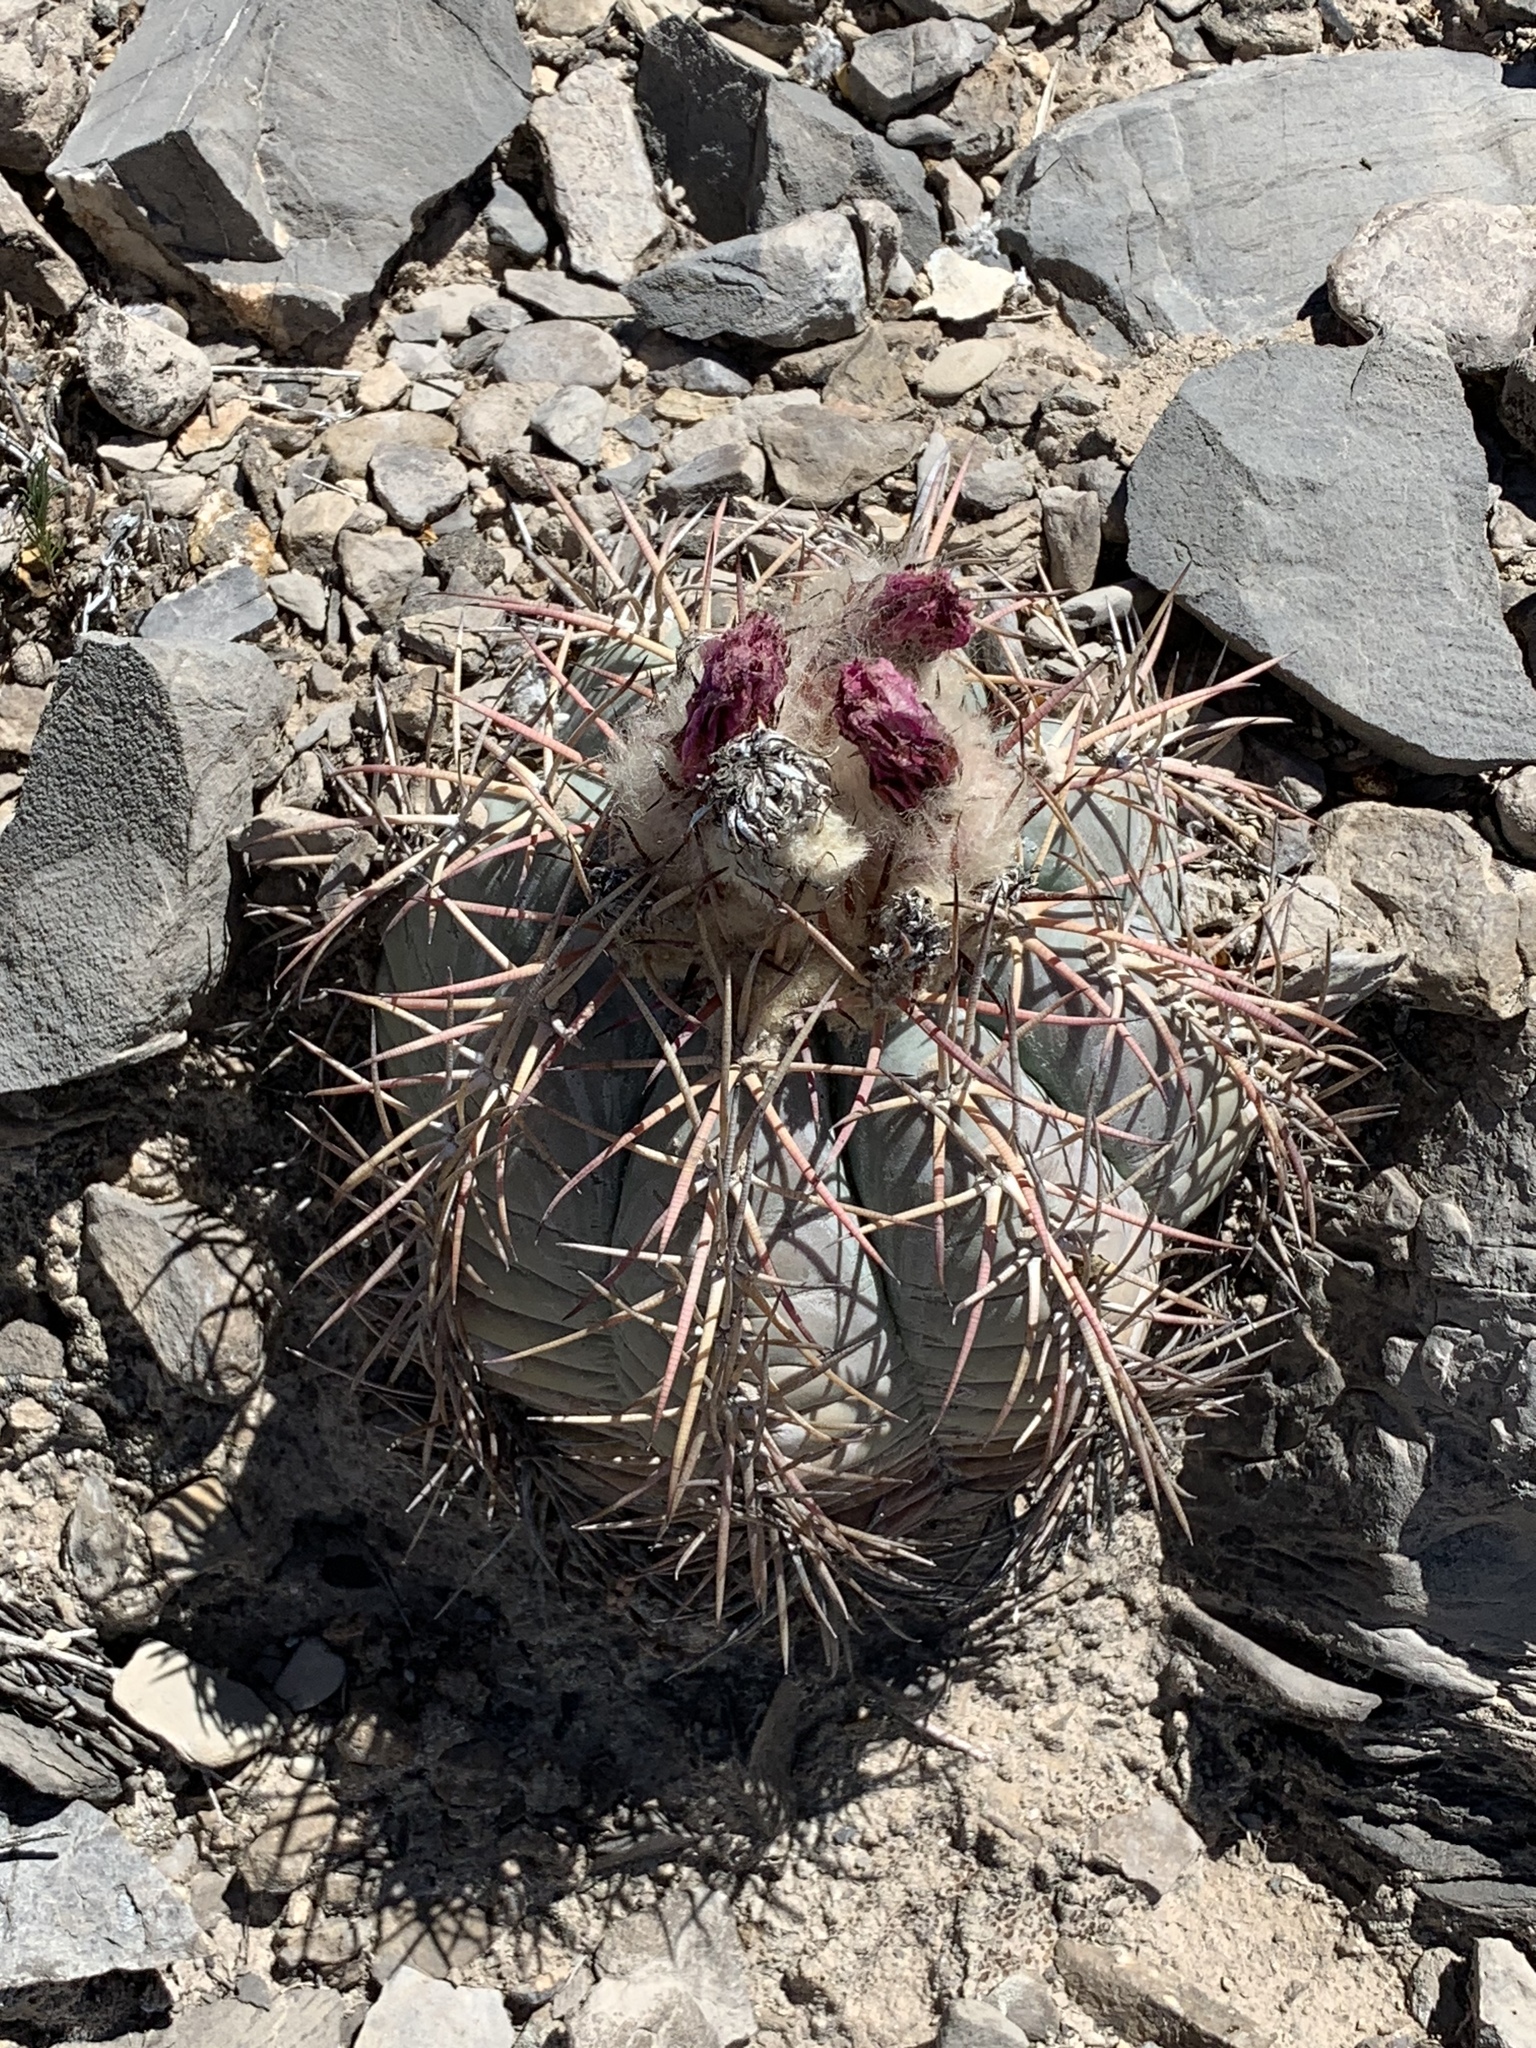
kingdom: Plantae
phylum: Tracheophyta
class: Magnoliopsida
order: Caryophyllales
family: Cactaceae
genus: Echinocactus
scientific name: Echinocactus horizonthalonius
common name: Devilshead
